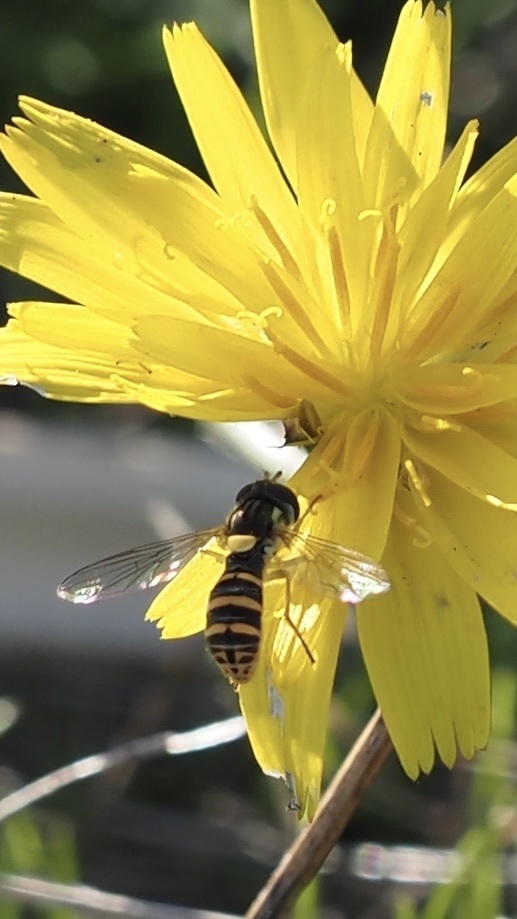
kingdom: Animalia
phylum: Arthropoda
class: Insecta
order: Diptera
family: Syrphidae
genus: Sphaerophoria
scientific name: Sphaerophoria sulphuripes
